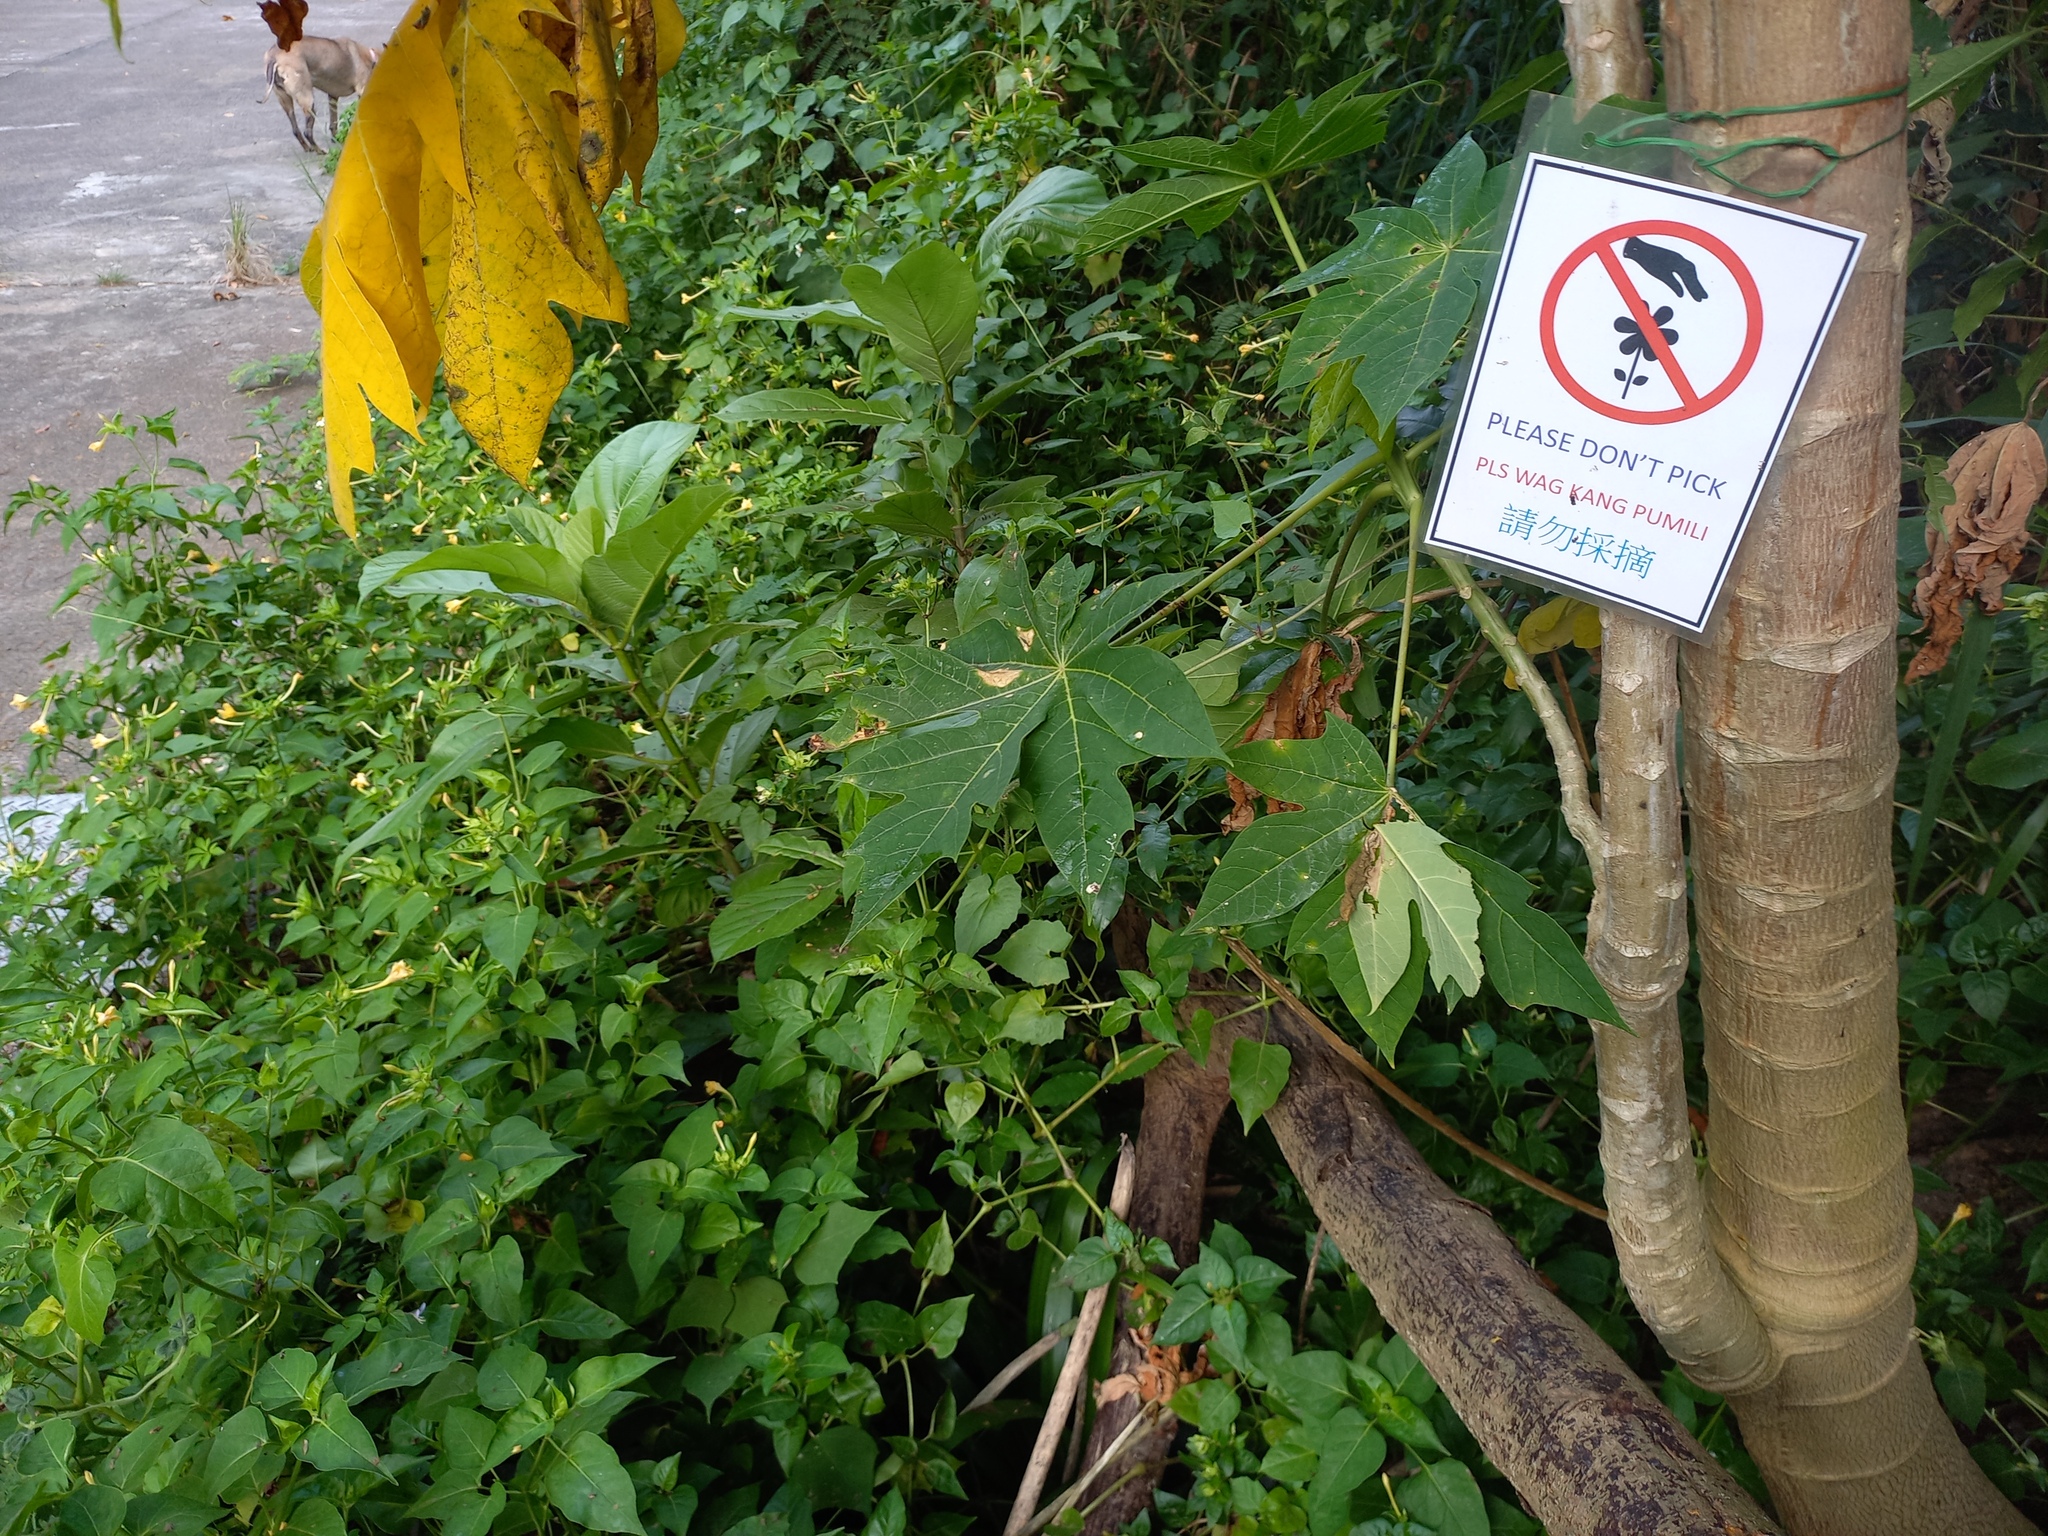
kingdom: Plantae
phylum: Tracheophyta
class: Magnoliopsida
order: Caryophyllales
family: Nyctaginaceae
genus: Mirabilis
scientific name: Mirabilis jalapa
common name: Marvel-of-peru
